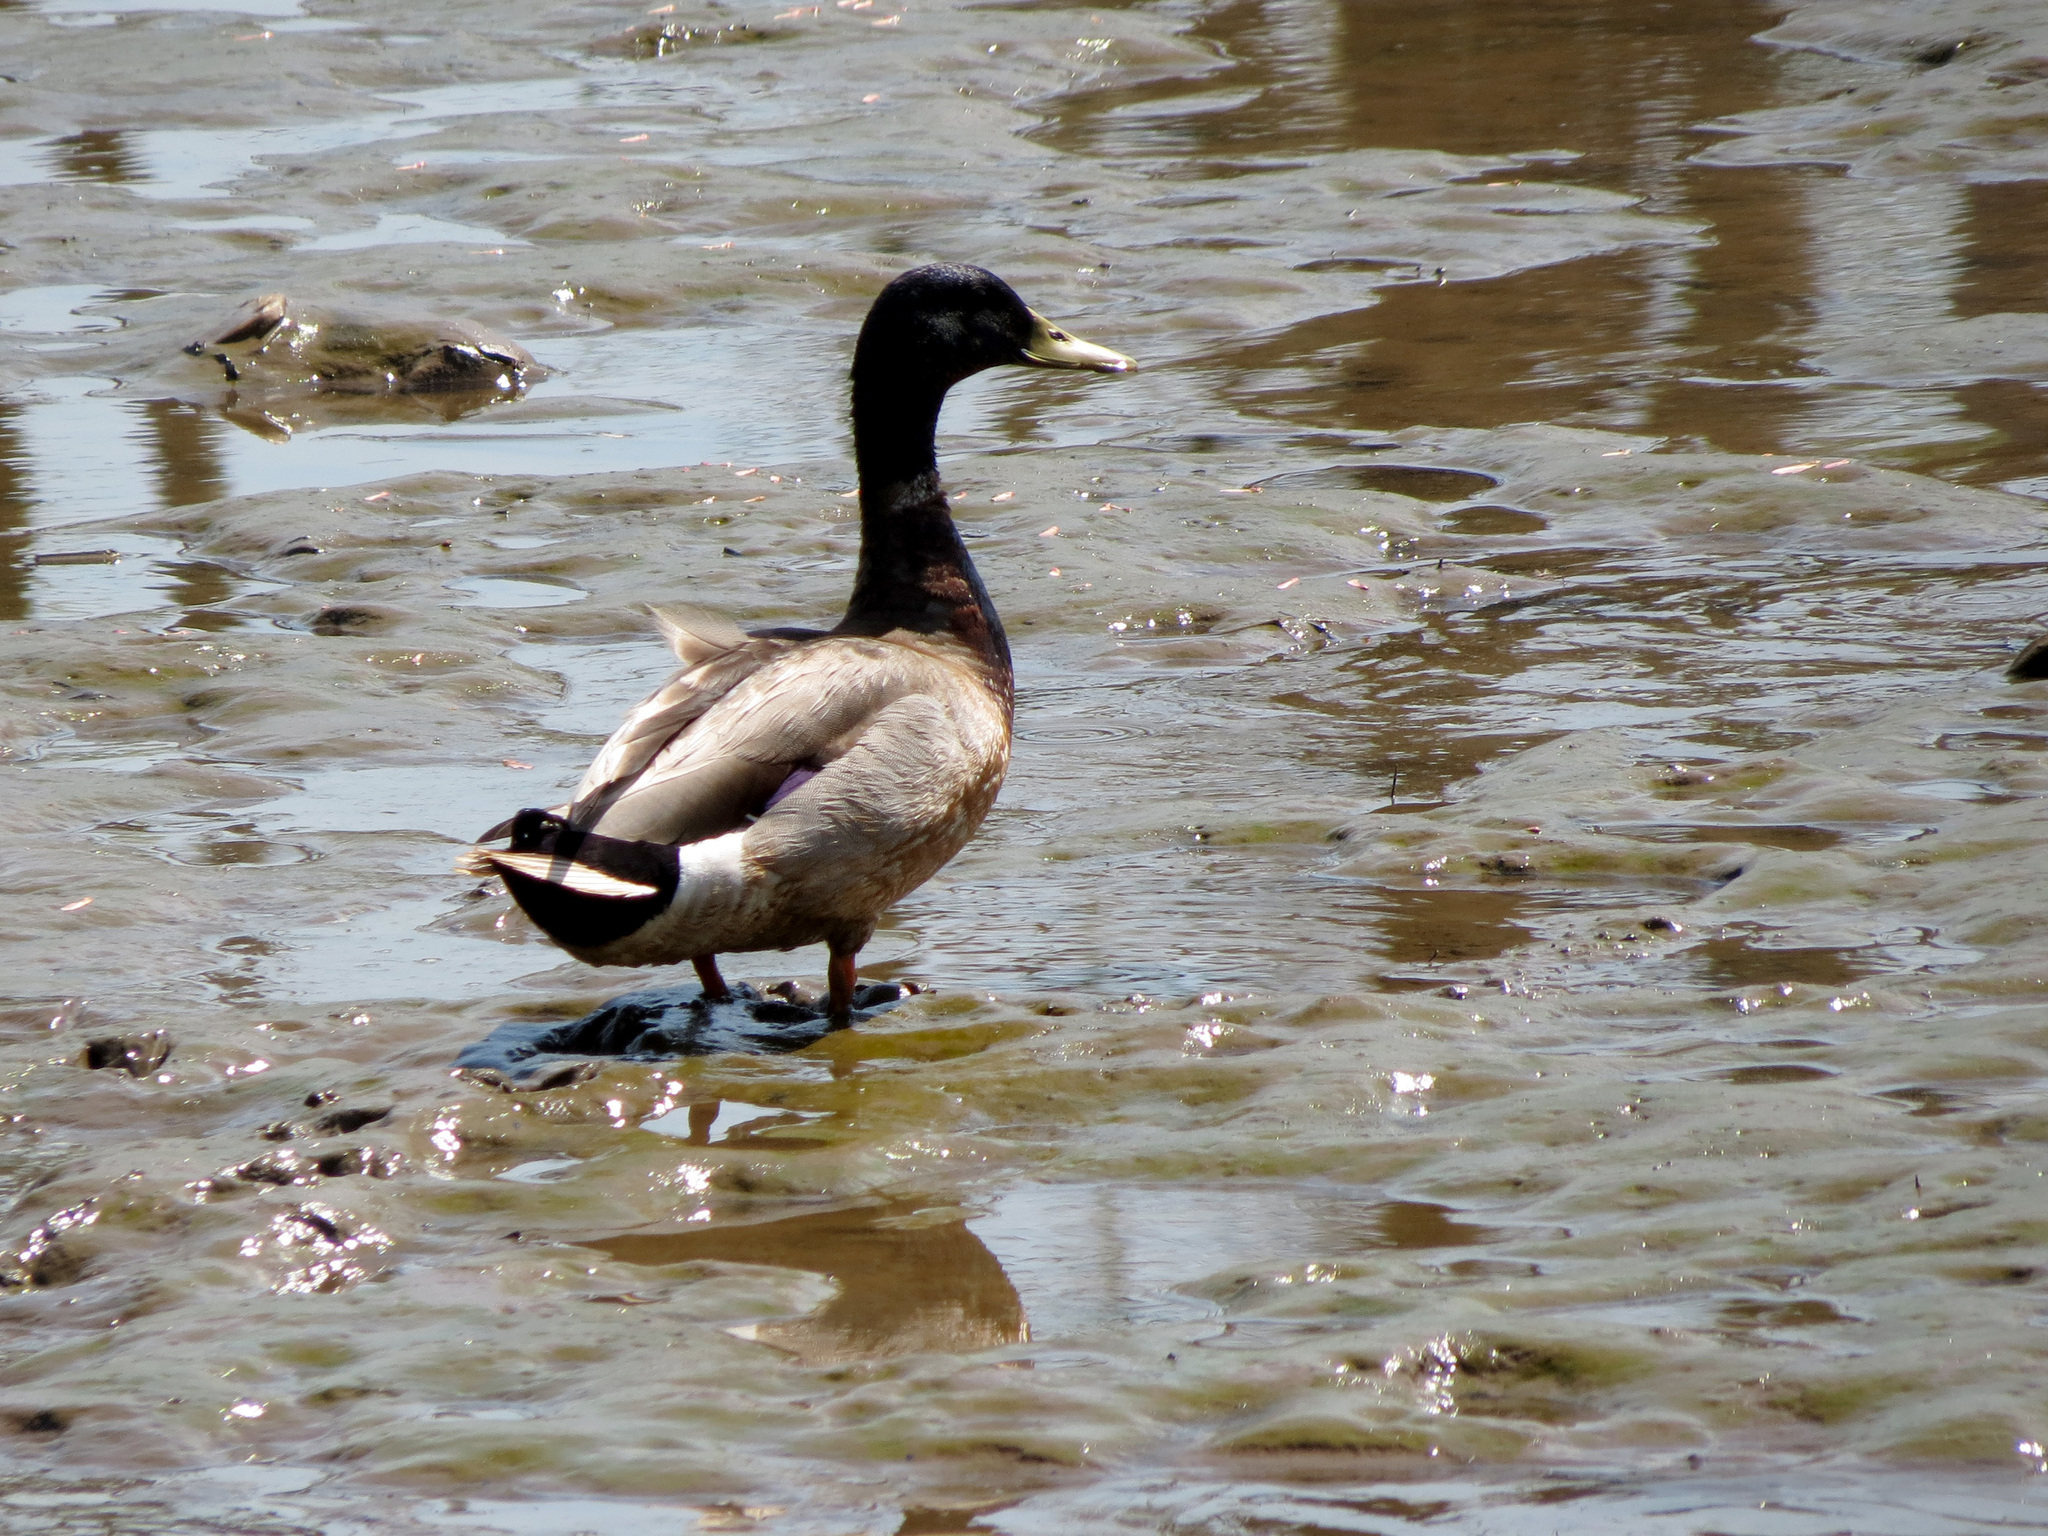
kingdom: Animalia
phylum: Chordata
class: Aves
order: Anseriformes
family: Anatidae
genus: Anas
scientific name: Anas platyrhynchos
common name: Mallard
